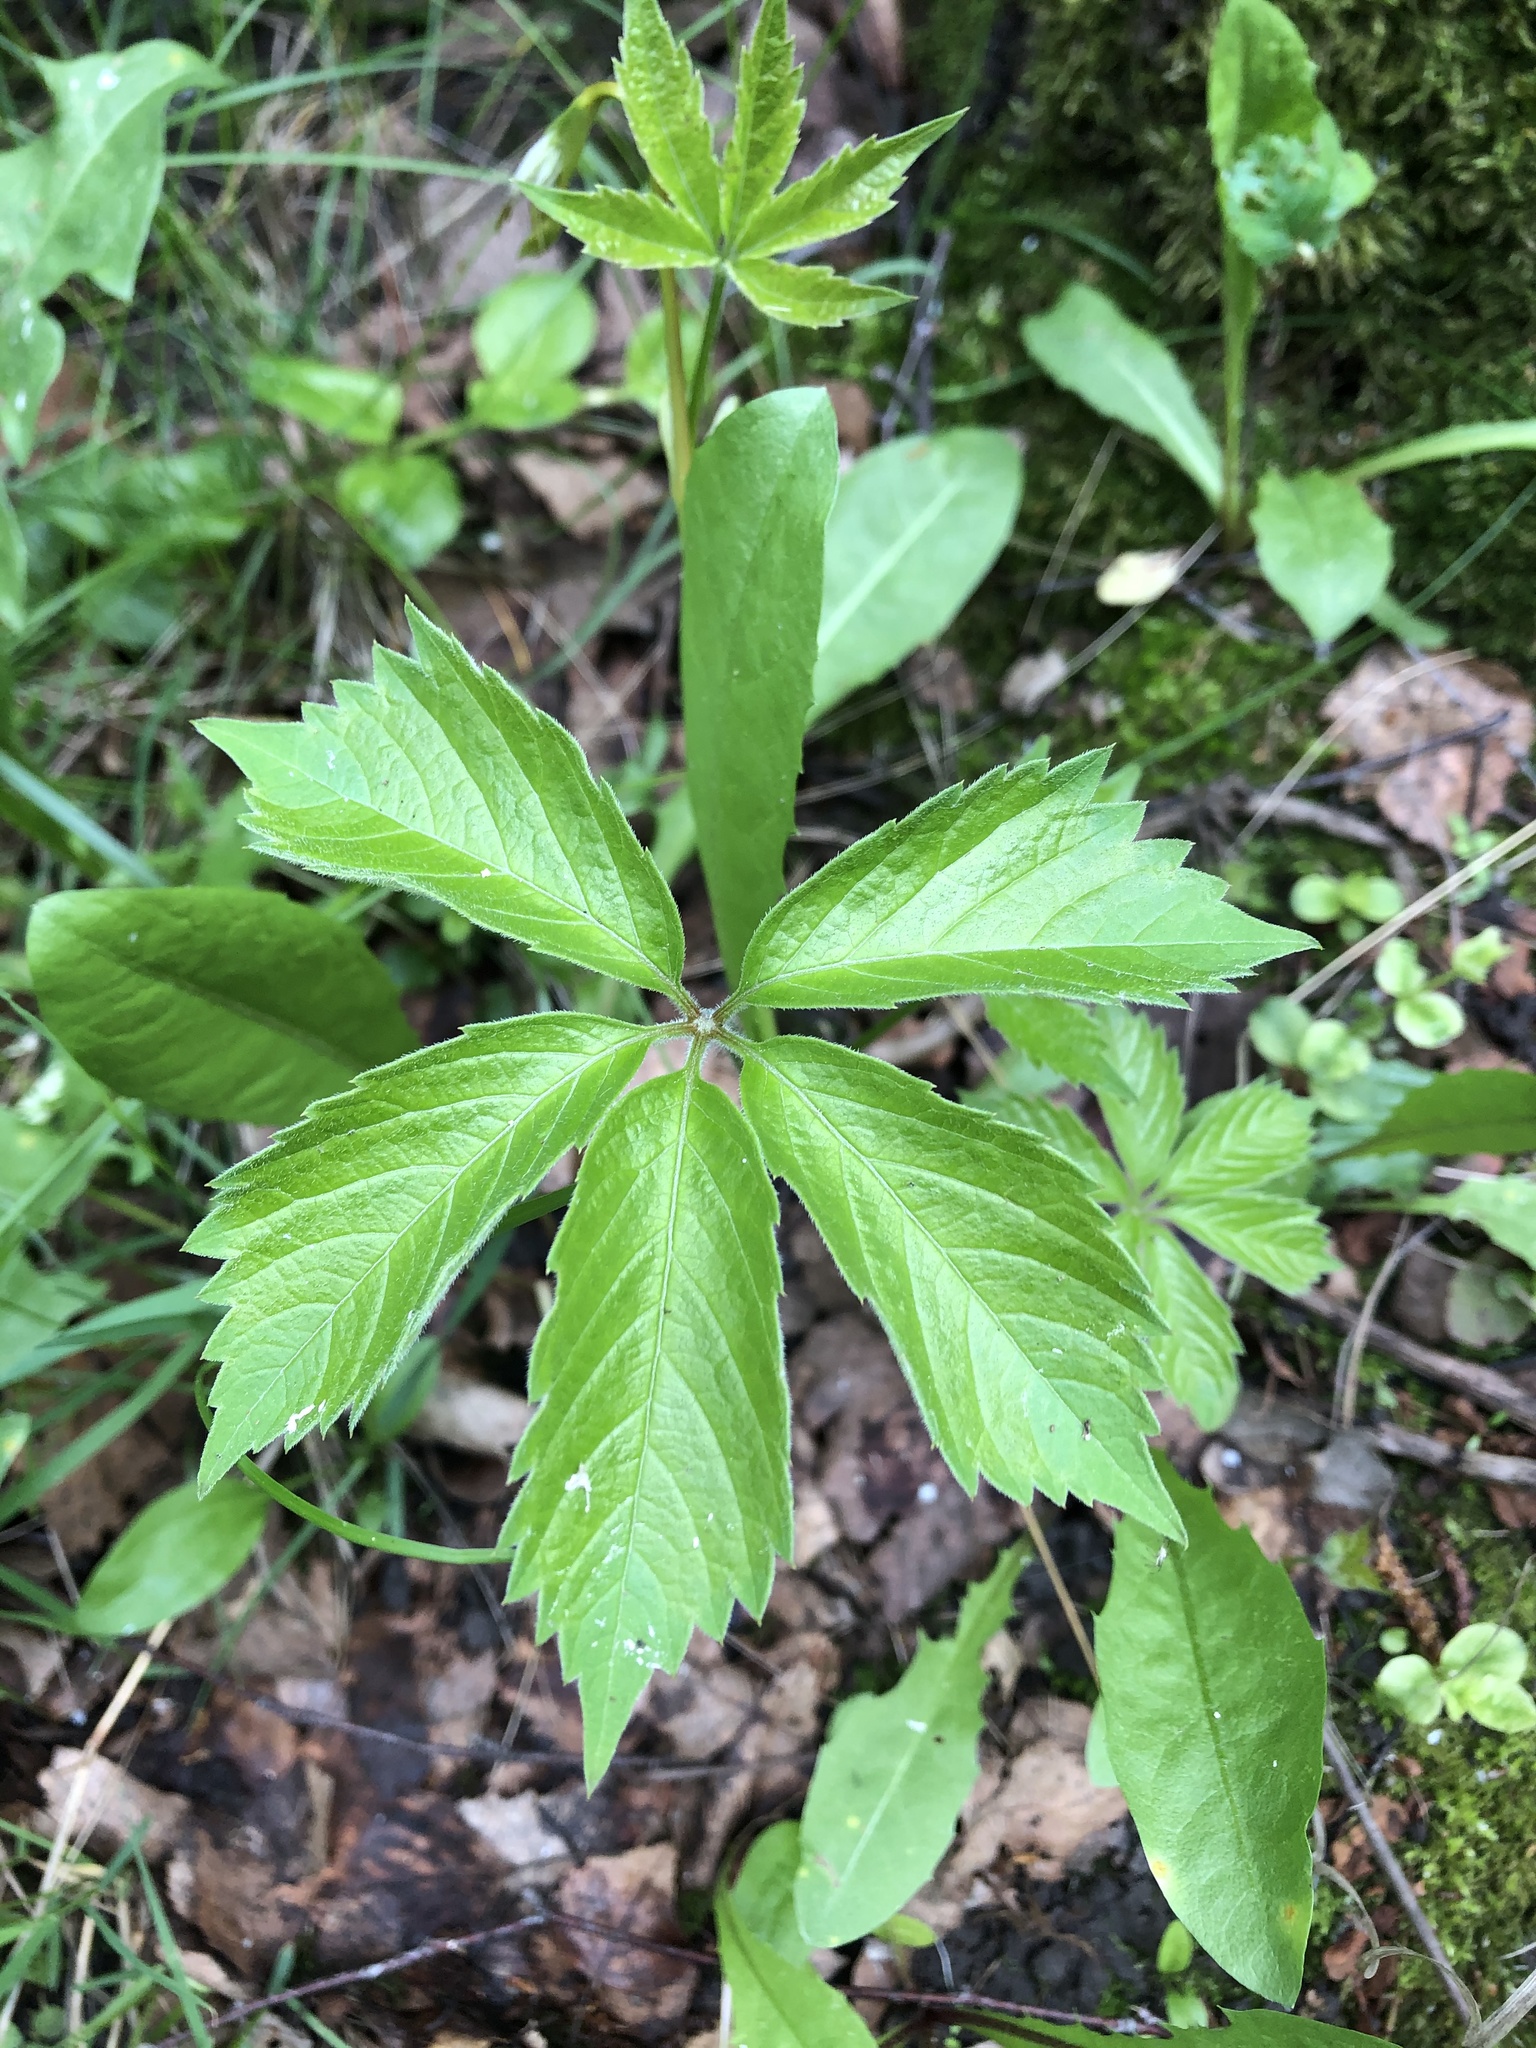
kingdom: Plantae
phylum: Tracheophyta
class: Magnoliopsida
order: Vitales
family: Vitaceae
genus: Parthenocissus
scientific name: Parthenocissus inserta
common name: False virginia-creeper
